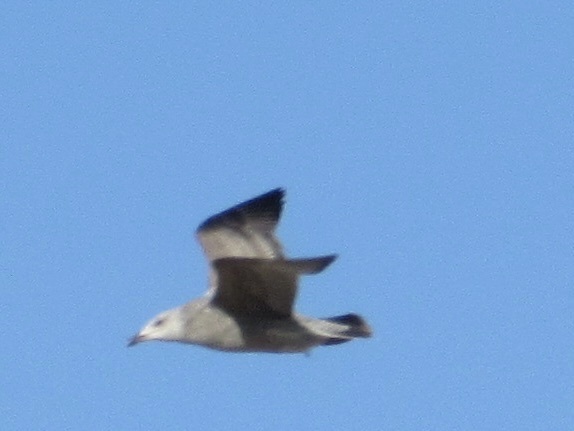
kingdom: Animalia
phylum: Chordata
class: Aves
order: Charadriiformes
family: Laridae
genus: Larus
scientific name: Larus argentatus
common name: Herring gull
